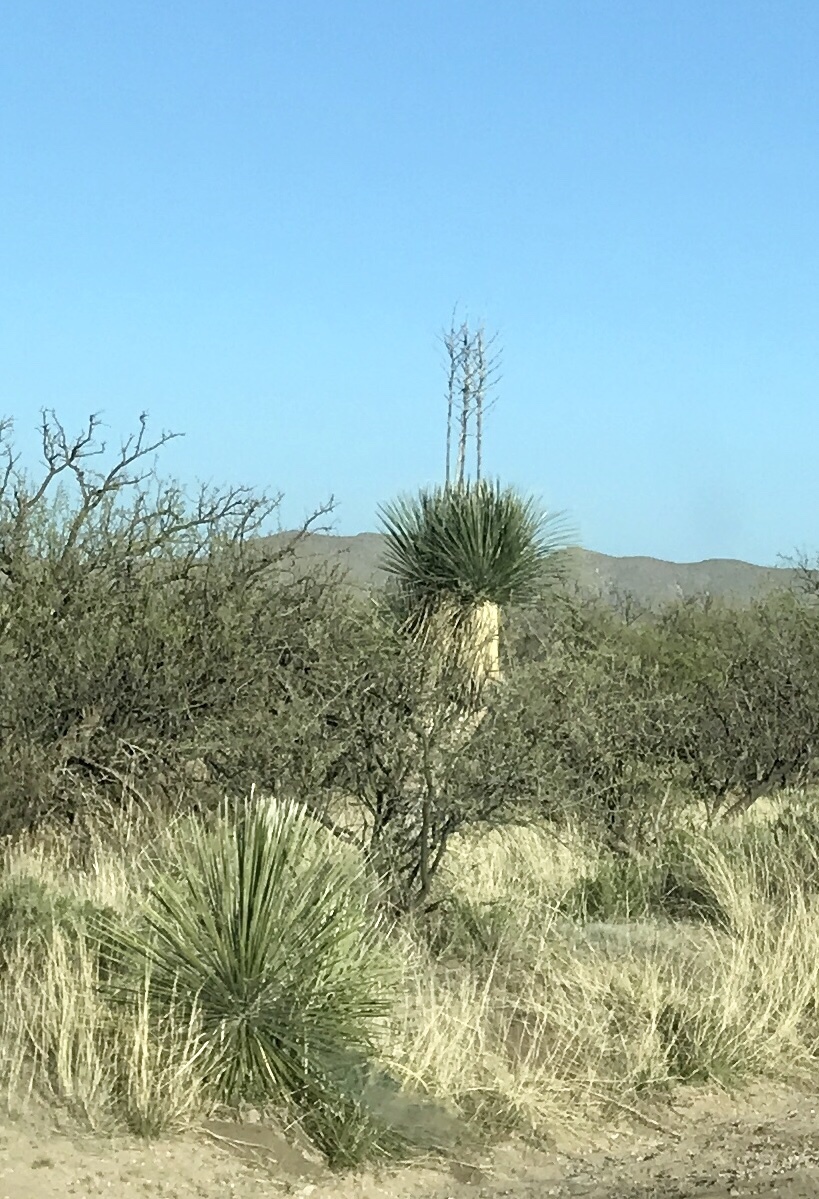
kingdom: Plantae
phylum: Tracheophyta
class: Liliopsida
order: Asparagales
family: Asparagaceae
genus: Yucca
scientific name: Yucca elata
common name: Palmella
